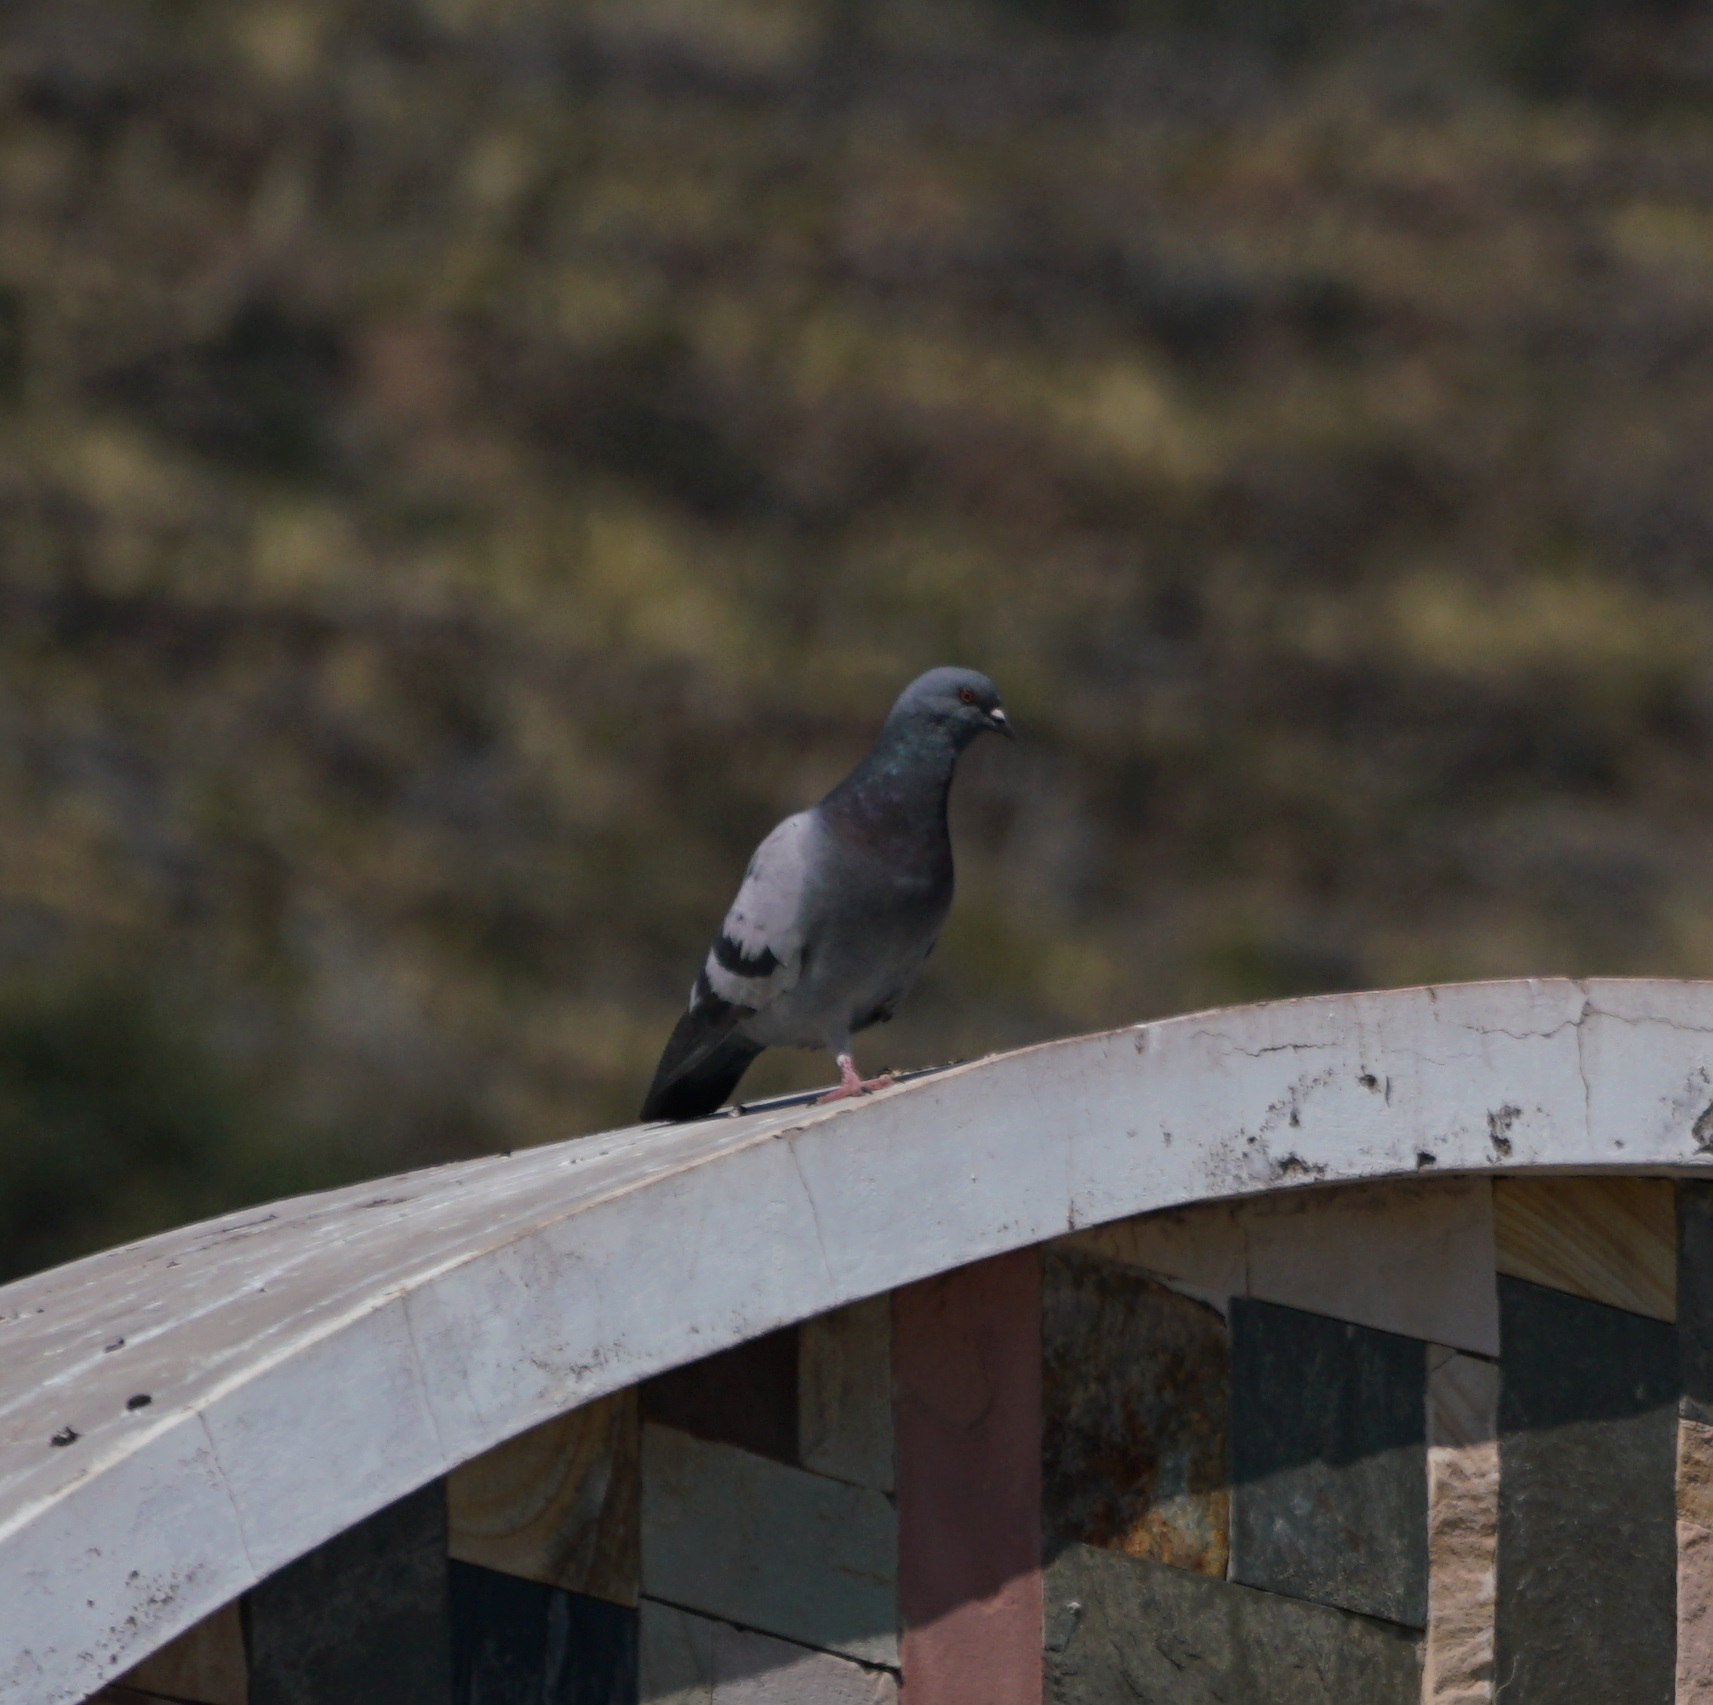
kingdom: Animalia
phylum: Chordata
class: Aves
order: Columbiformes
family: Columbidae
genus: Columba
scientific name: Columba livia
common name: Rock pigeon
